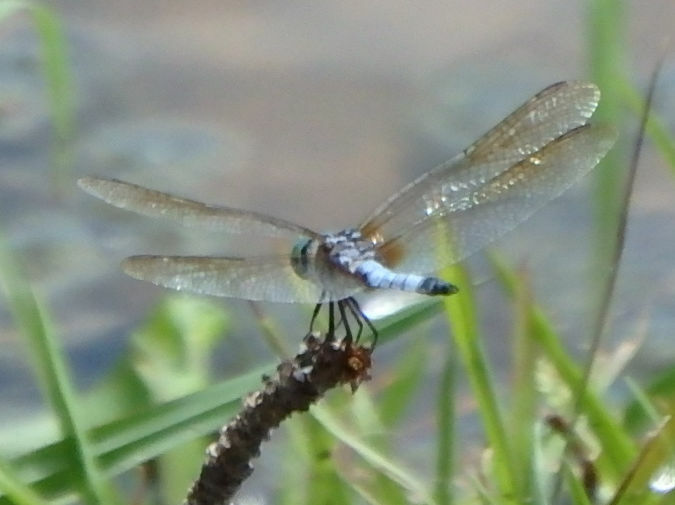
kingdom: Animalia
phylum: Arthropoda
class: Insecta
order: Odonata
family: Libellulidae
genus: Pachydiplax
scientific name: Pachydiplax longipennis
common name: Blue dasher
